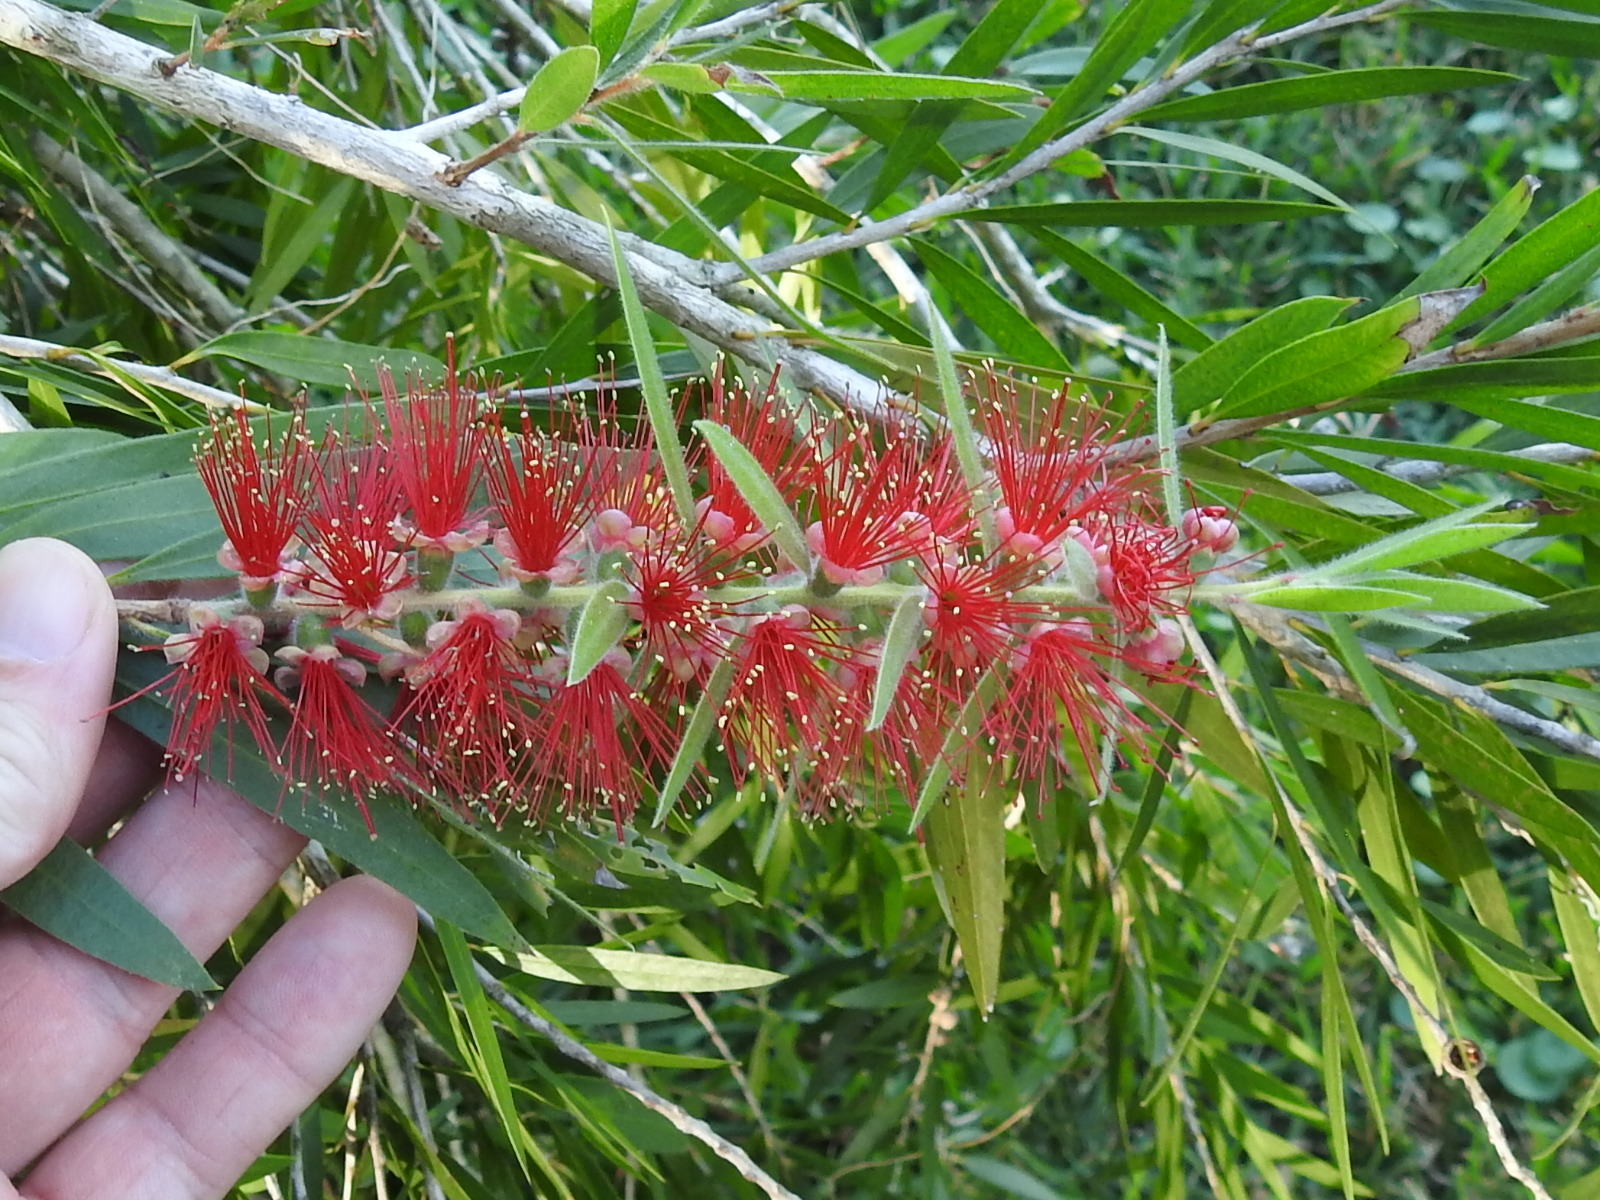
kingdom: Plantae
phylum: Tracheophyta
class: Magnoliopsida
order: Myrtales
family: Myrtaceae
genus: Callistemon
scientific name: Callistemon viminalis
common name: Drooping bottlebrush
